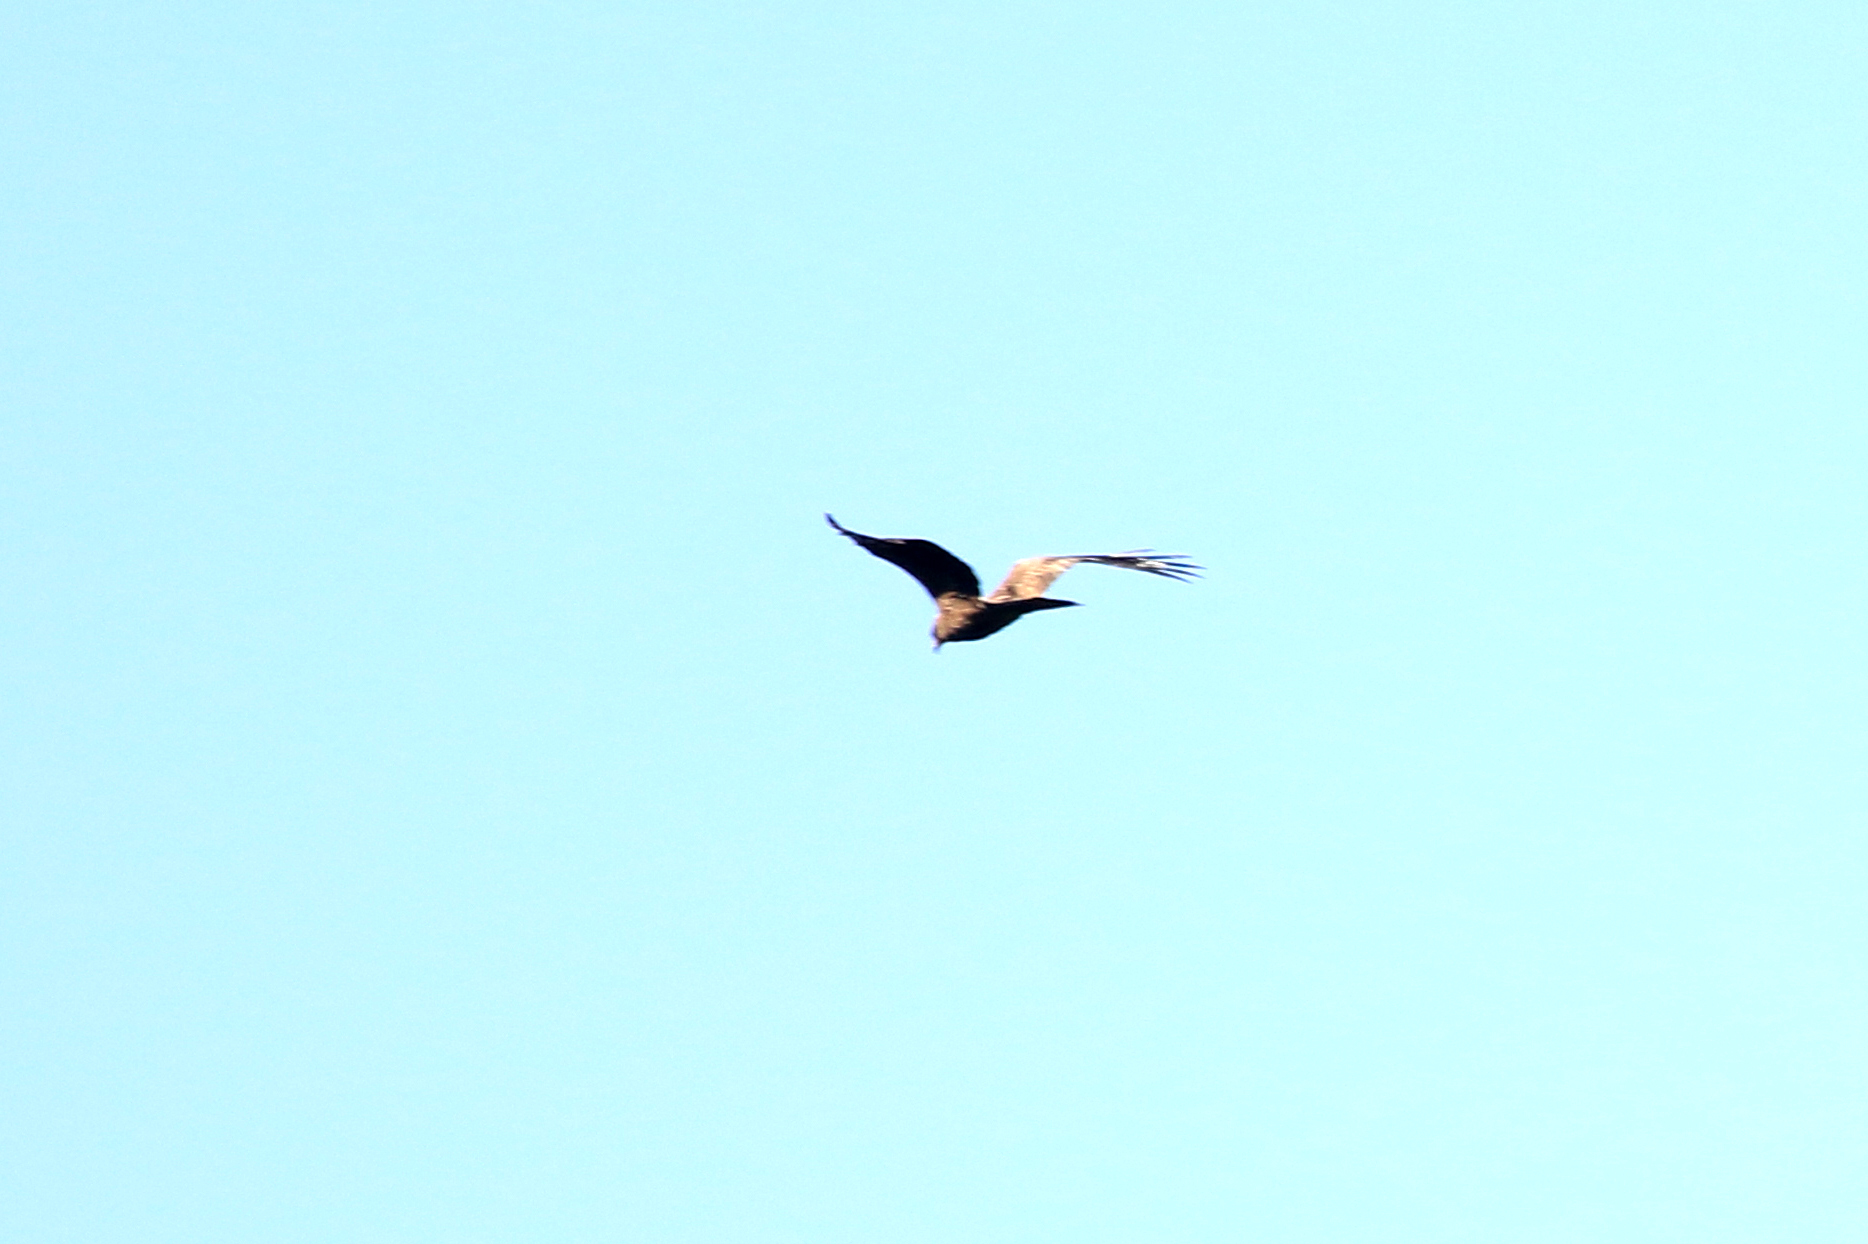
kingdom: Animalia
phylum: Chordata
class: Aves
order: Accipitriformes
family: Accipitridae
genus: Circus
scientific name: Circus aeruginosus
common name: Western marsh harrier
